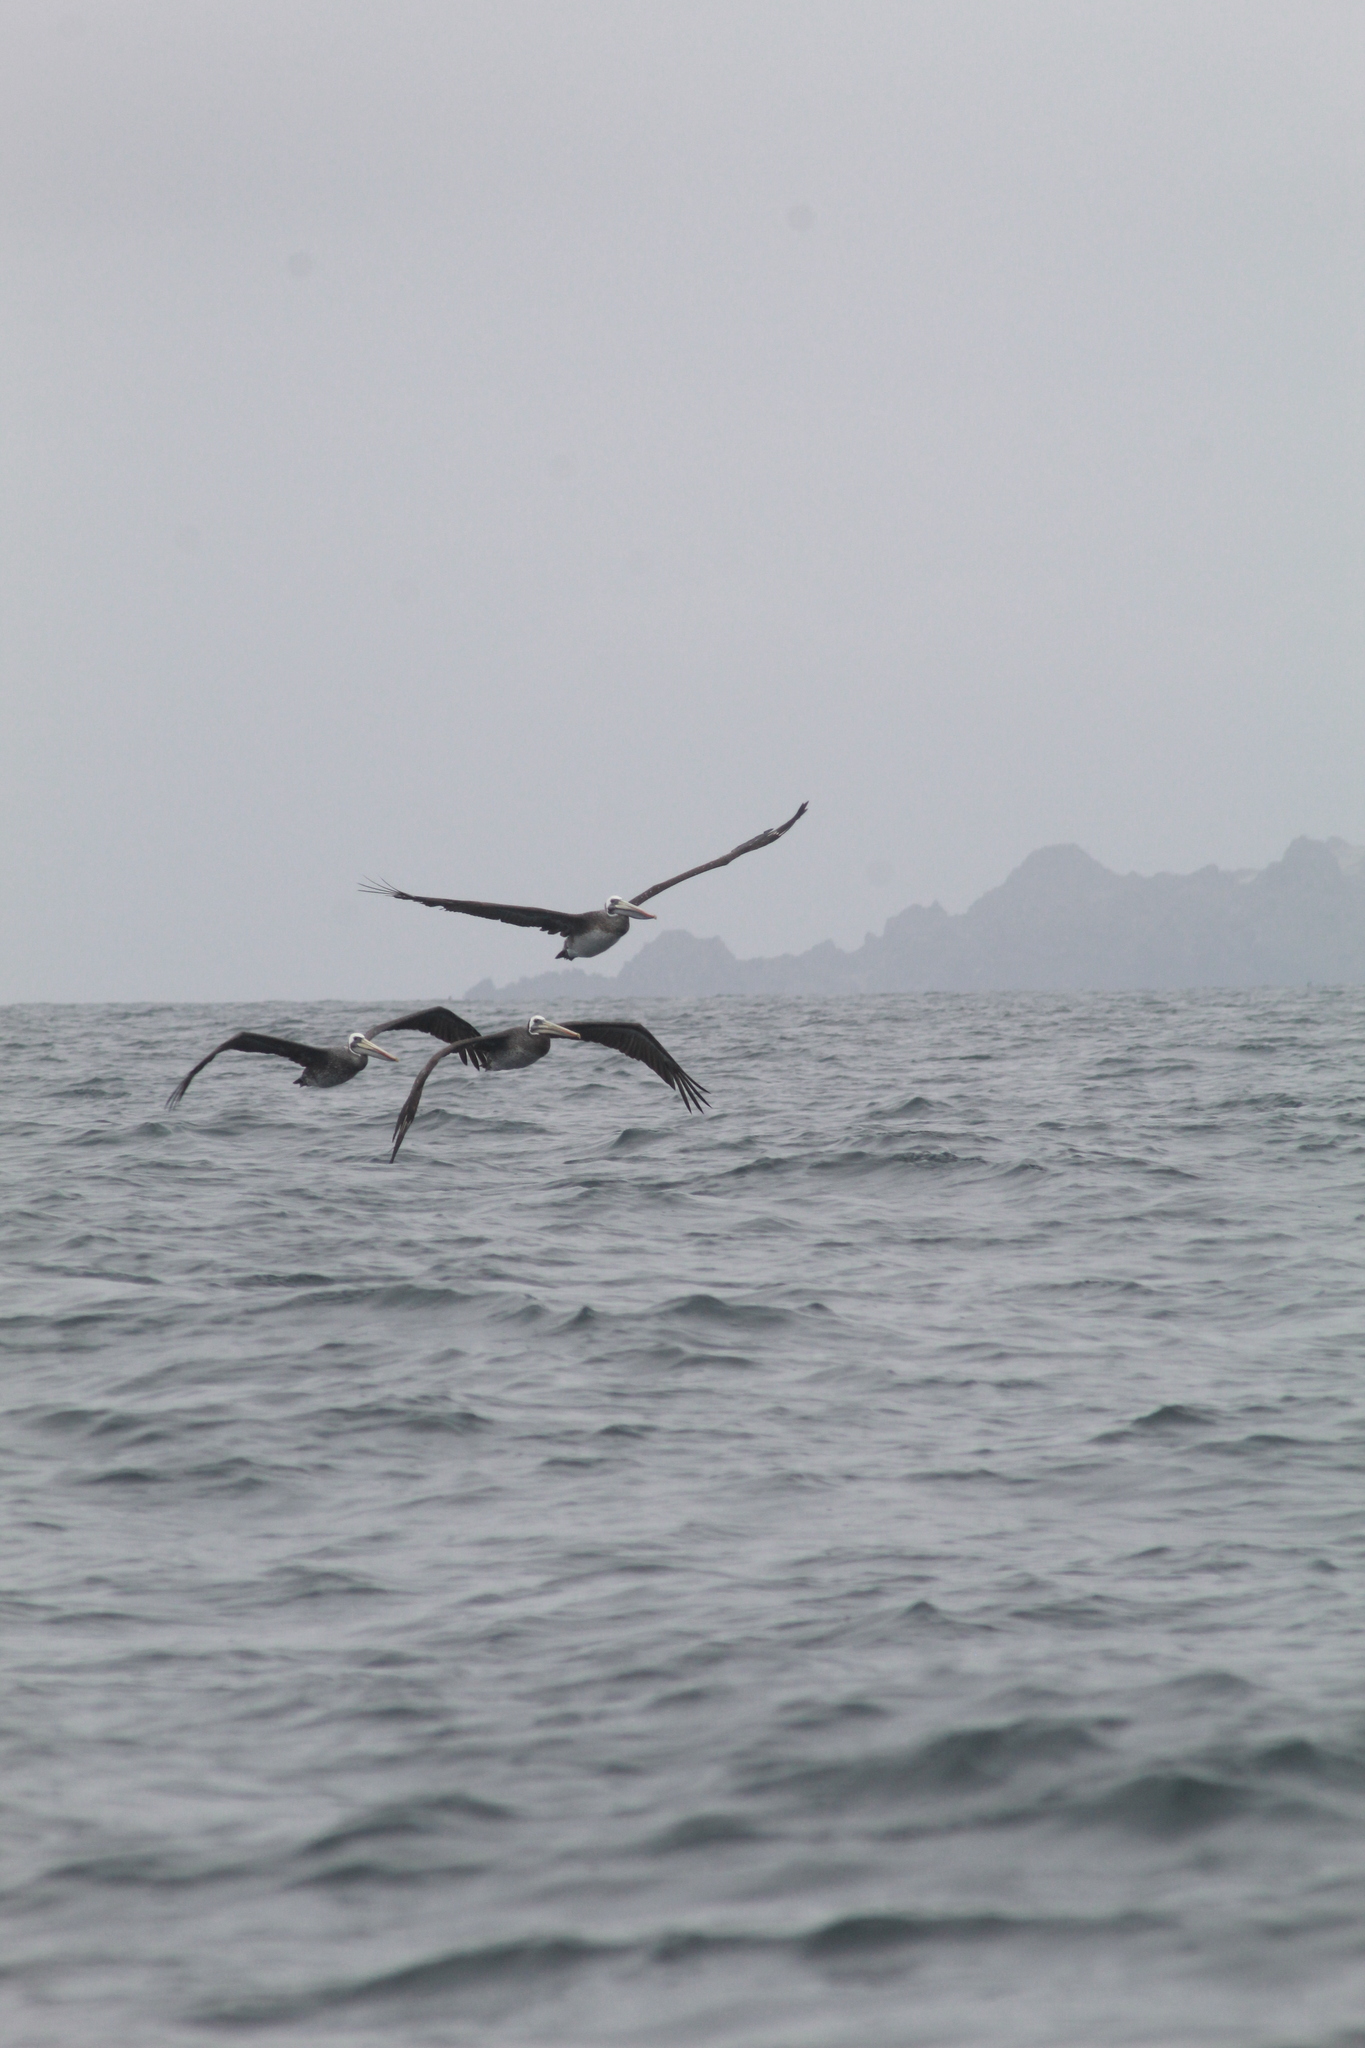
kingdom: Animalia
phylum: Chordata
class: Aves
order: Pelecaniformes
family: Pelecanidae
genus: Pelecanus
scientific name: Pelecanus thagus
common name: Peruvian pelican
